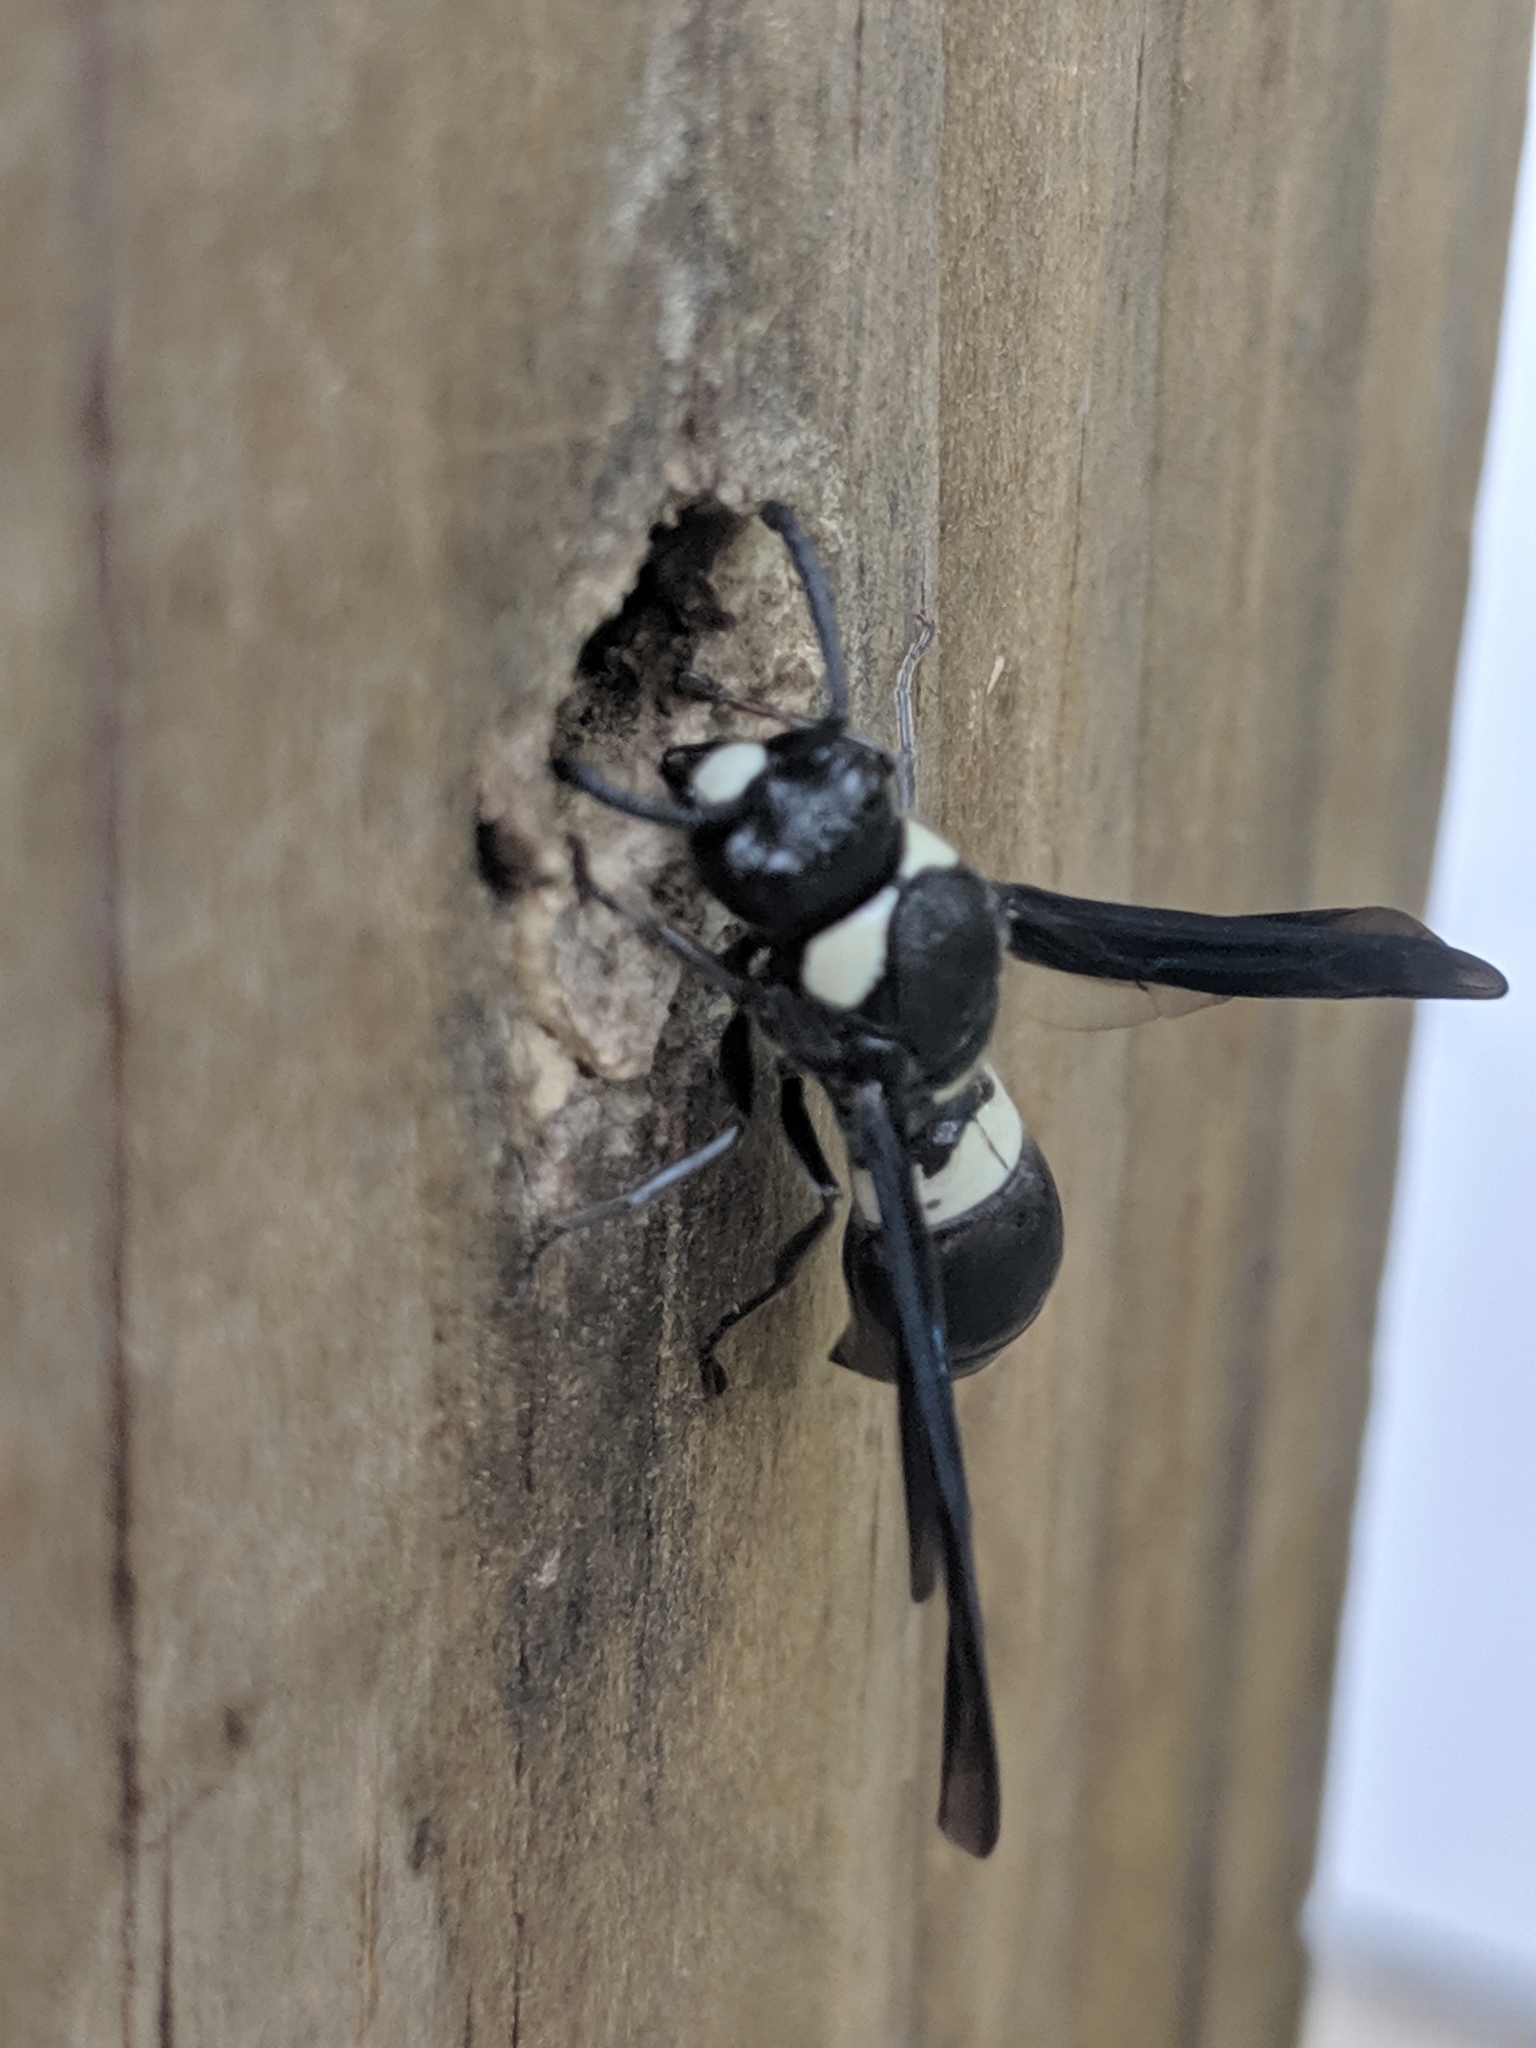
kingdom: Animalia
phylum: Arthropoda
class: Insecta
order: Hymenoptera
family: Eumenidae
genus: Monobia
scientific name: Monobia quadridens
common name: Four-toothed mason wasp
